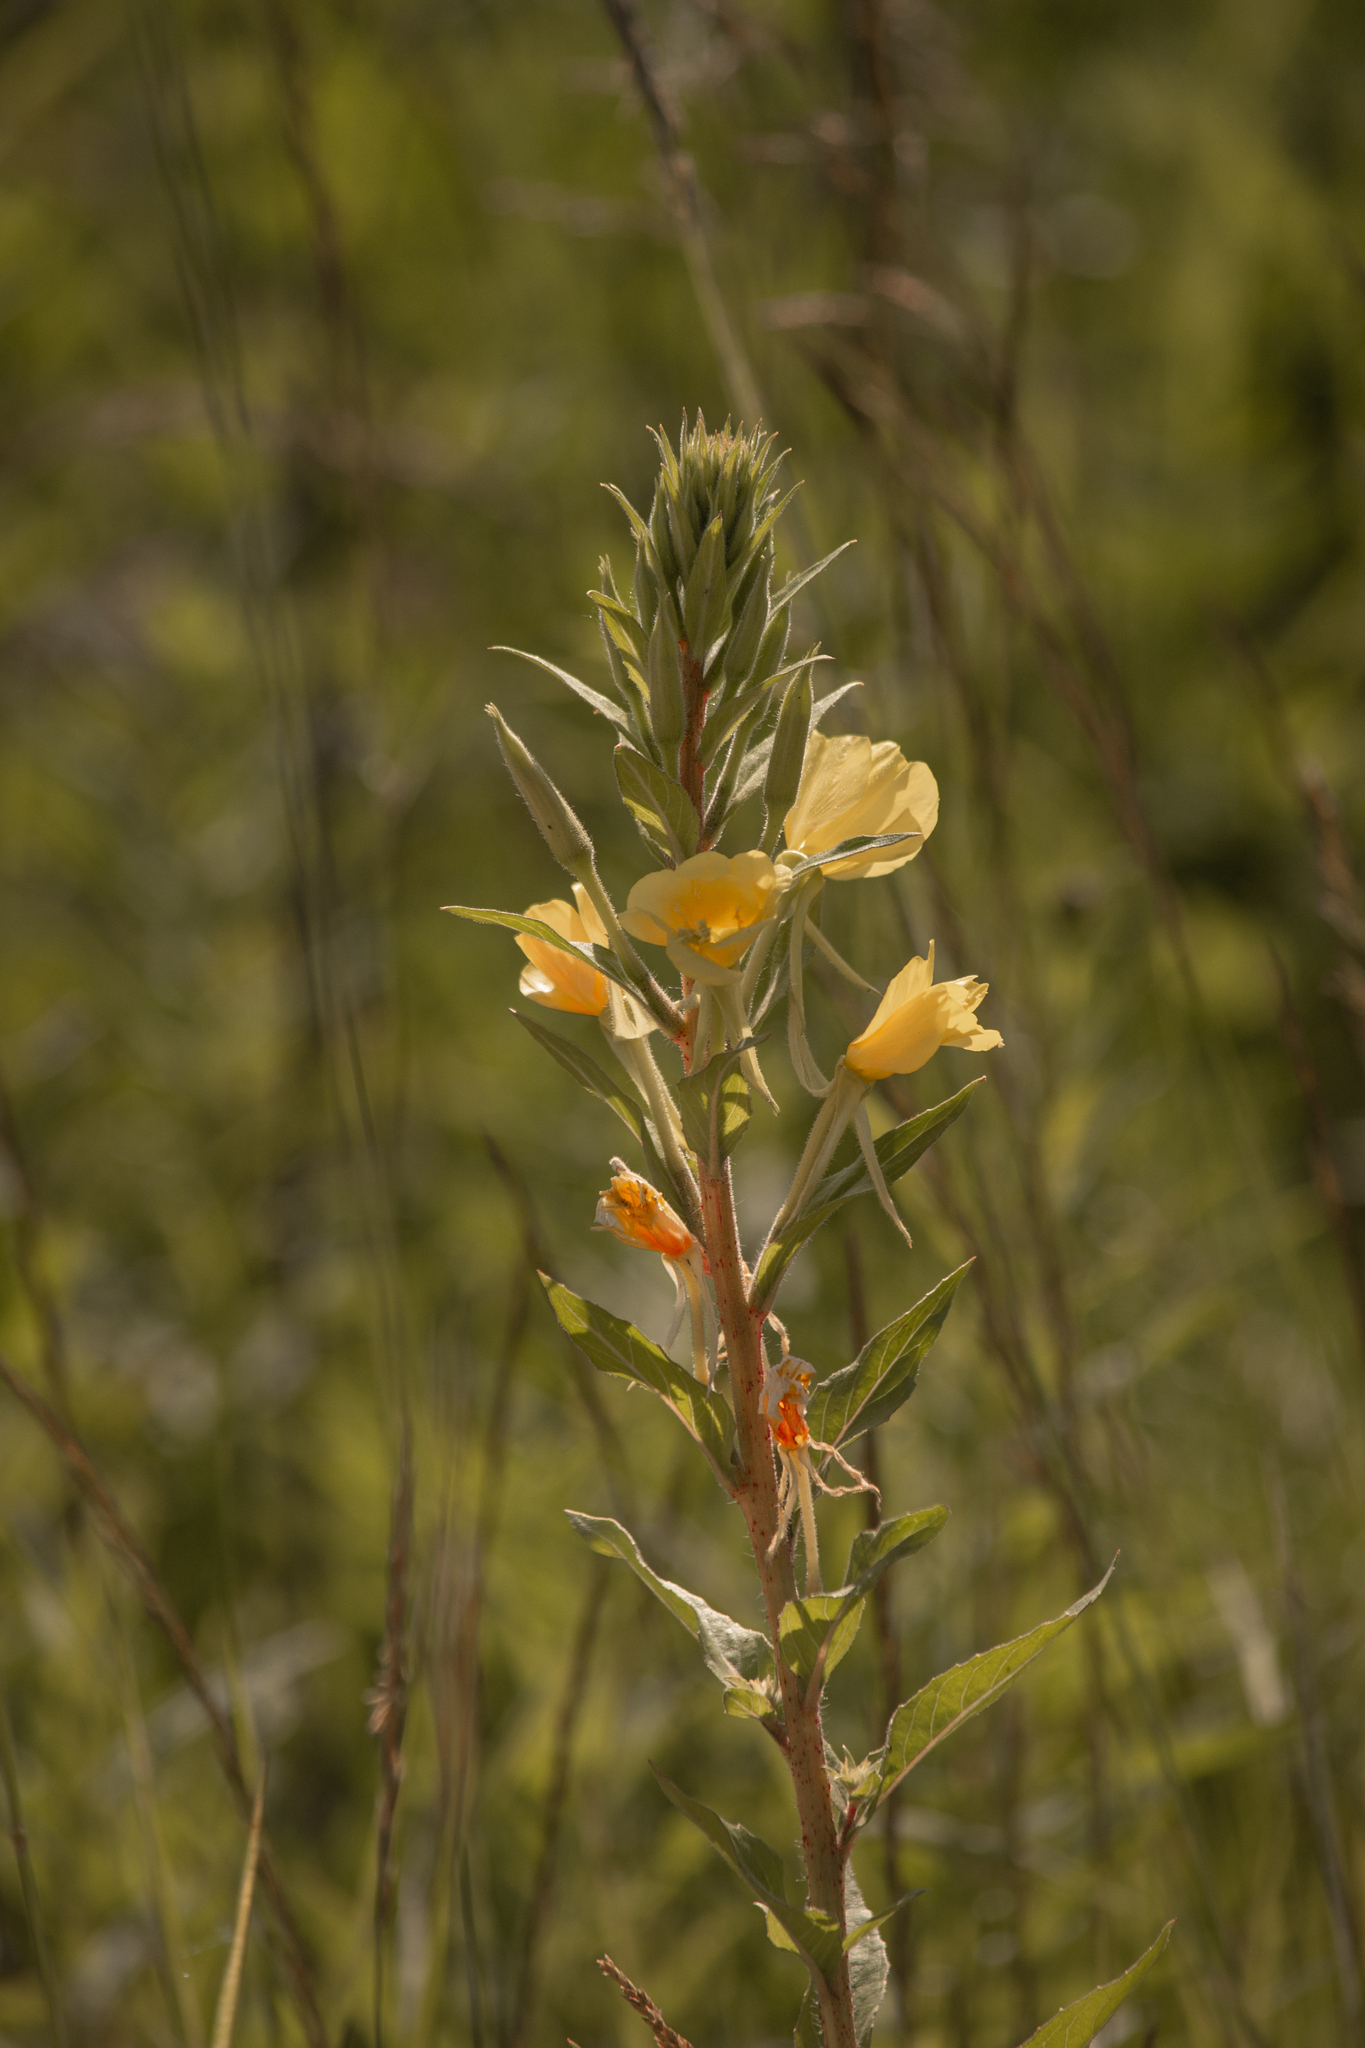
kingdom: Plantae
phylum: Tracheophyta
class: Magnoliopsida
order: Myrtales
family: Onagraceae
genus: Oenothera
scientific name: Oenothera rubricaulis
